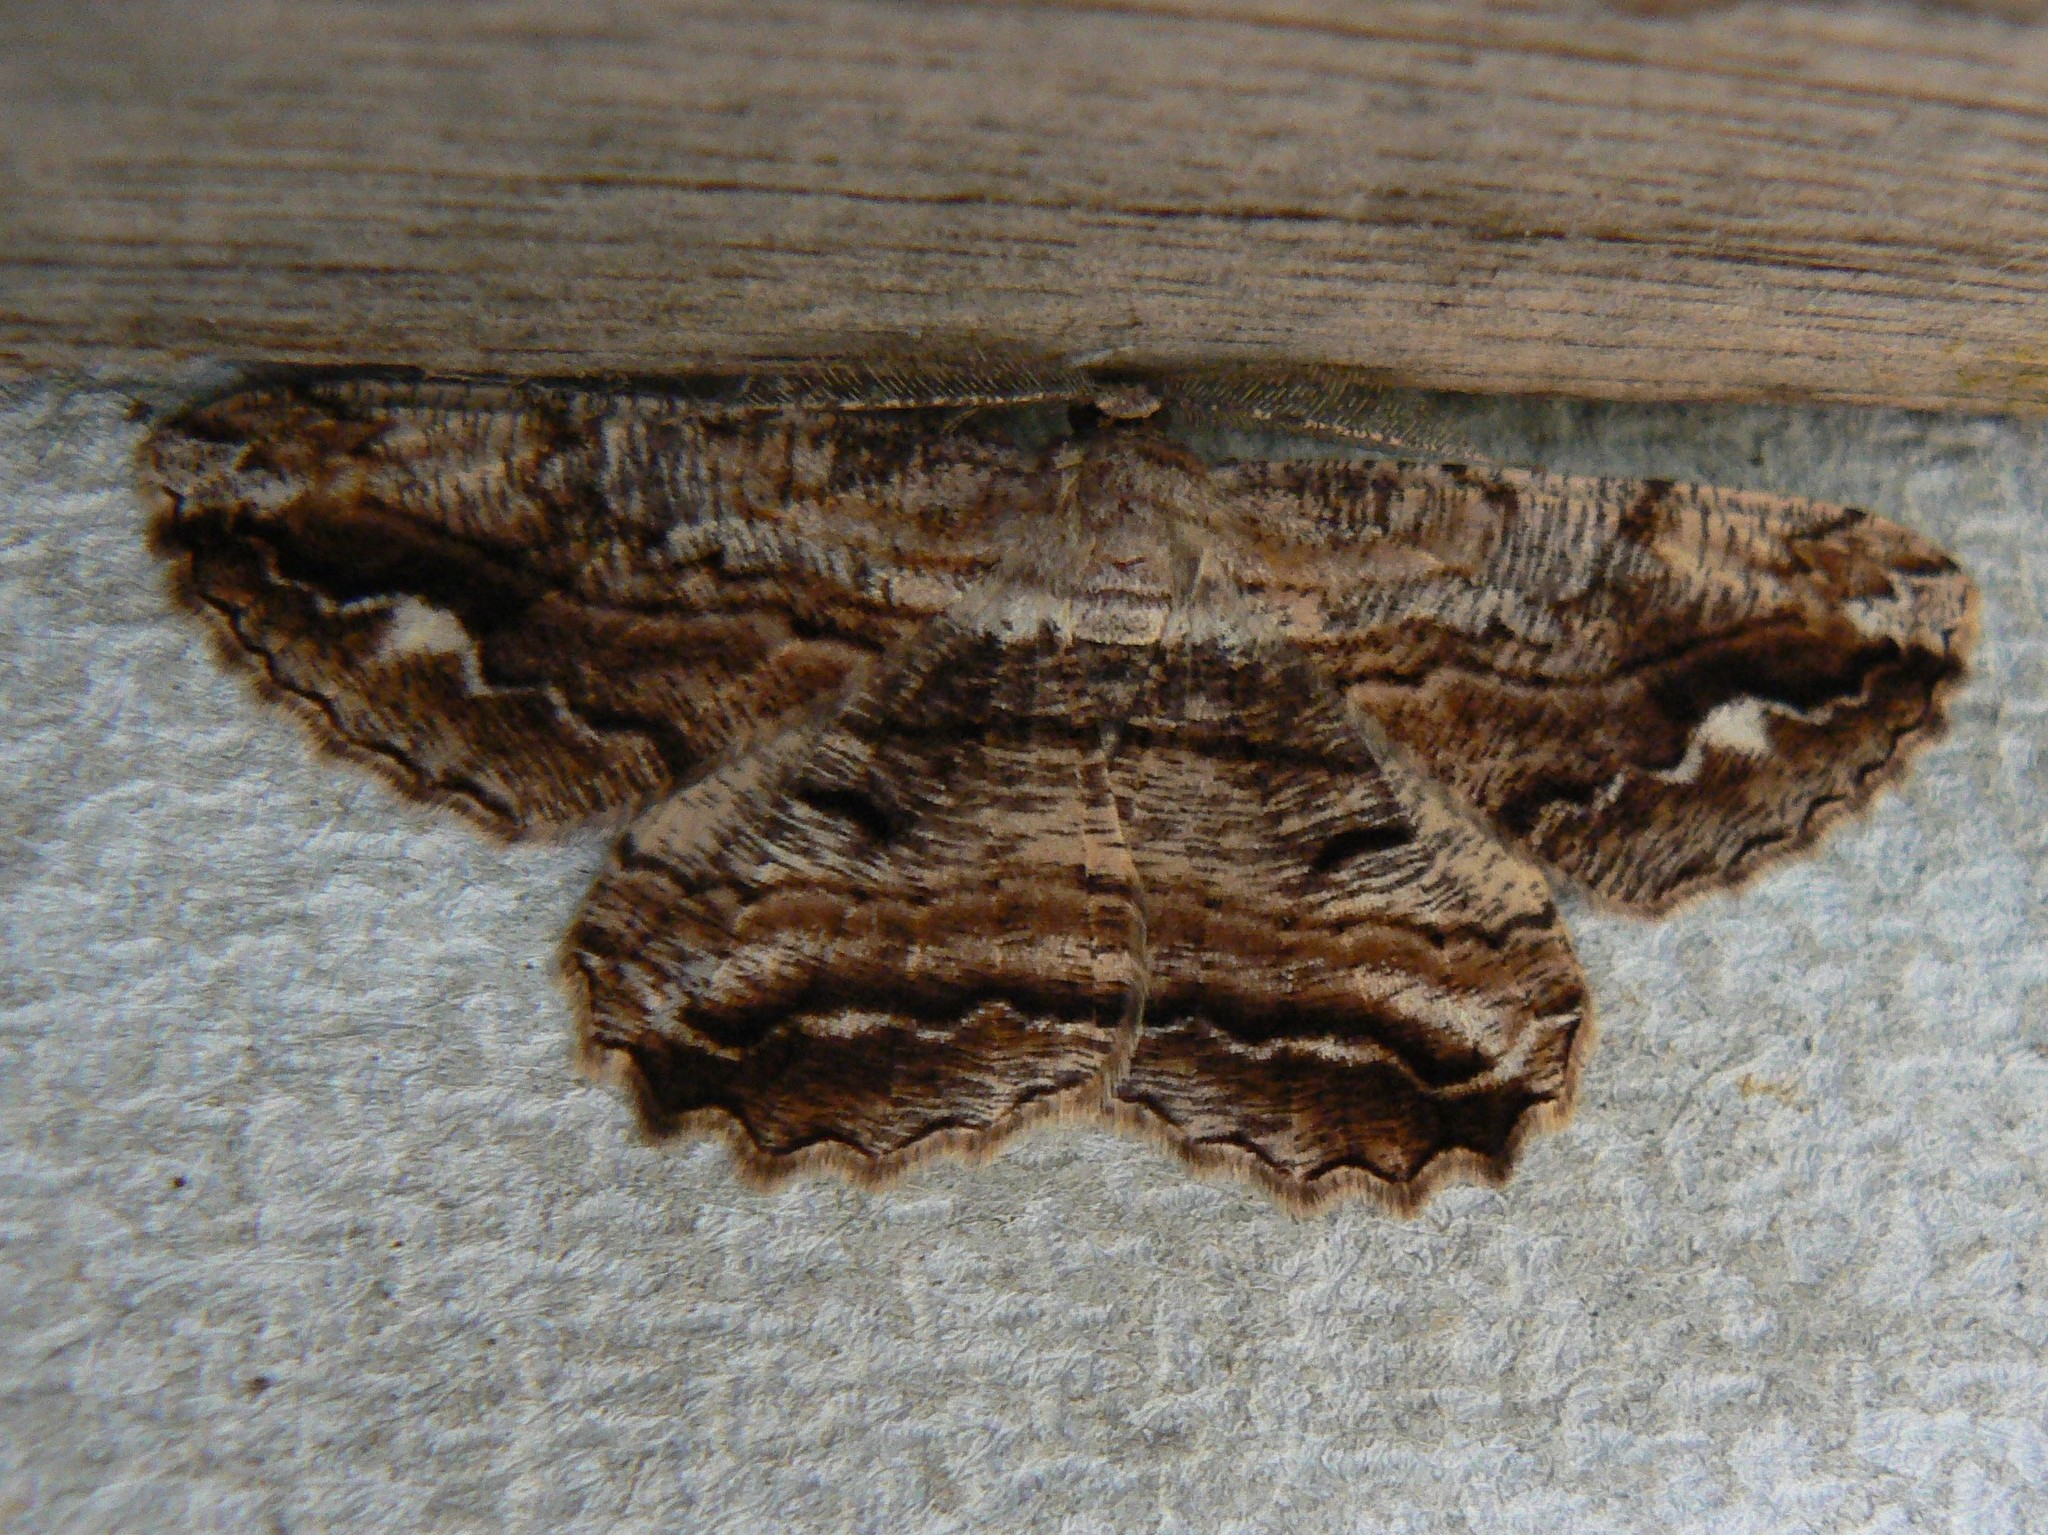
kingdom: Animalia
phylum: Arthropoda
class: Insecta
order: Lepidoptera
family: Geometridae
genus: Scioglyptis
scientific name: Scioglyptis lyciaria
